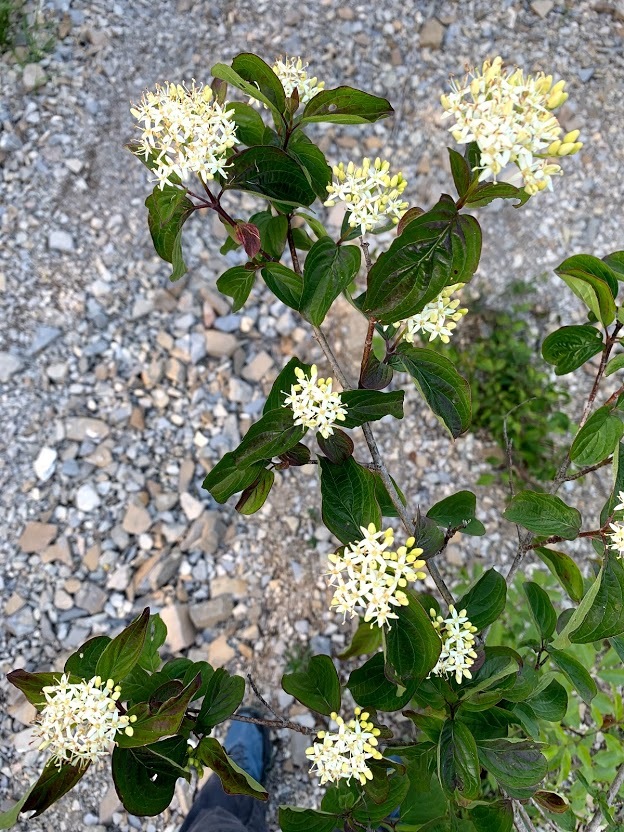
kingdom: Plantae
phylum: Tracheophyta
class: Magnoliopsida
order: Cornales
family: Cornaceae
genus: Cornus
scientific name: Cornus sanguinea
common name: Dogwood
